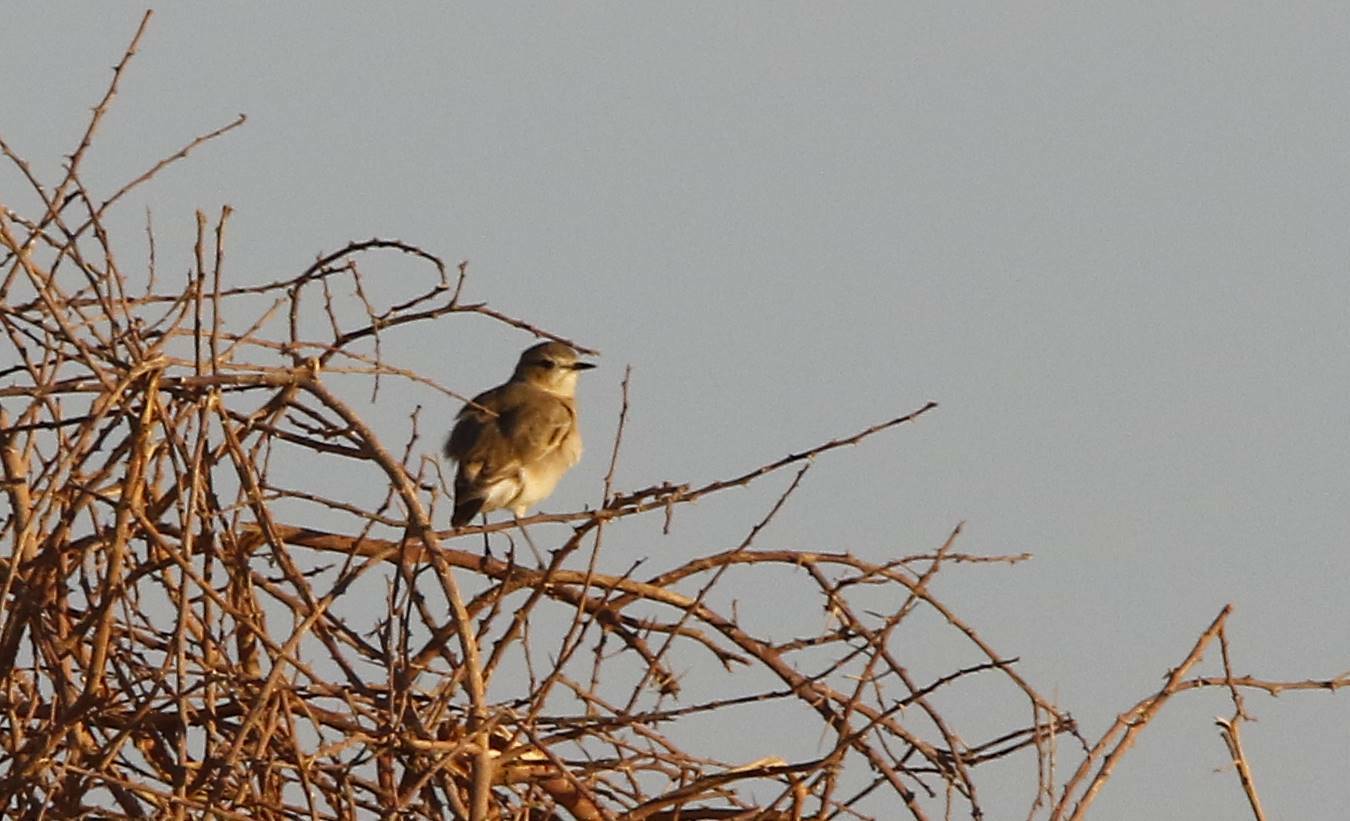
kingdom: Animalia
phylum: Chordata
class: Aves
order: Passeriformes
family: Muscicapidae
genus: Oenanthe
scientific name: Oenanthe isabellina
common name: Isabelline wheatear
